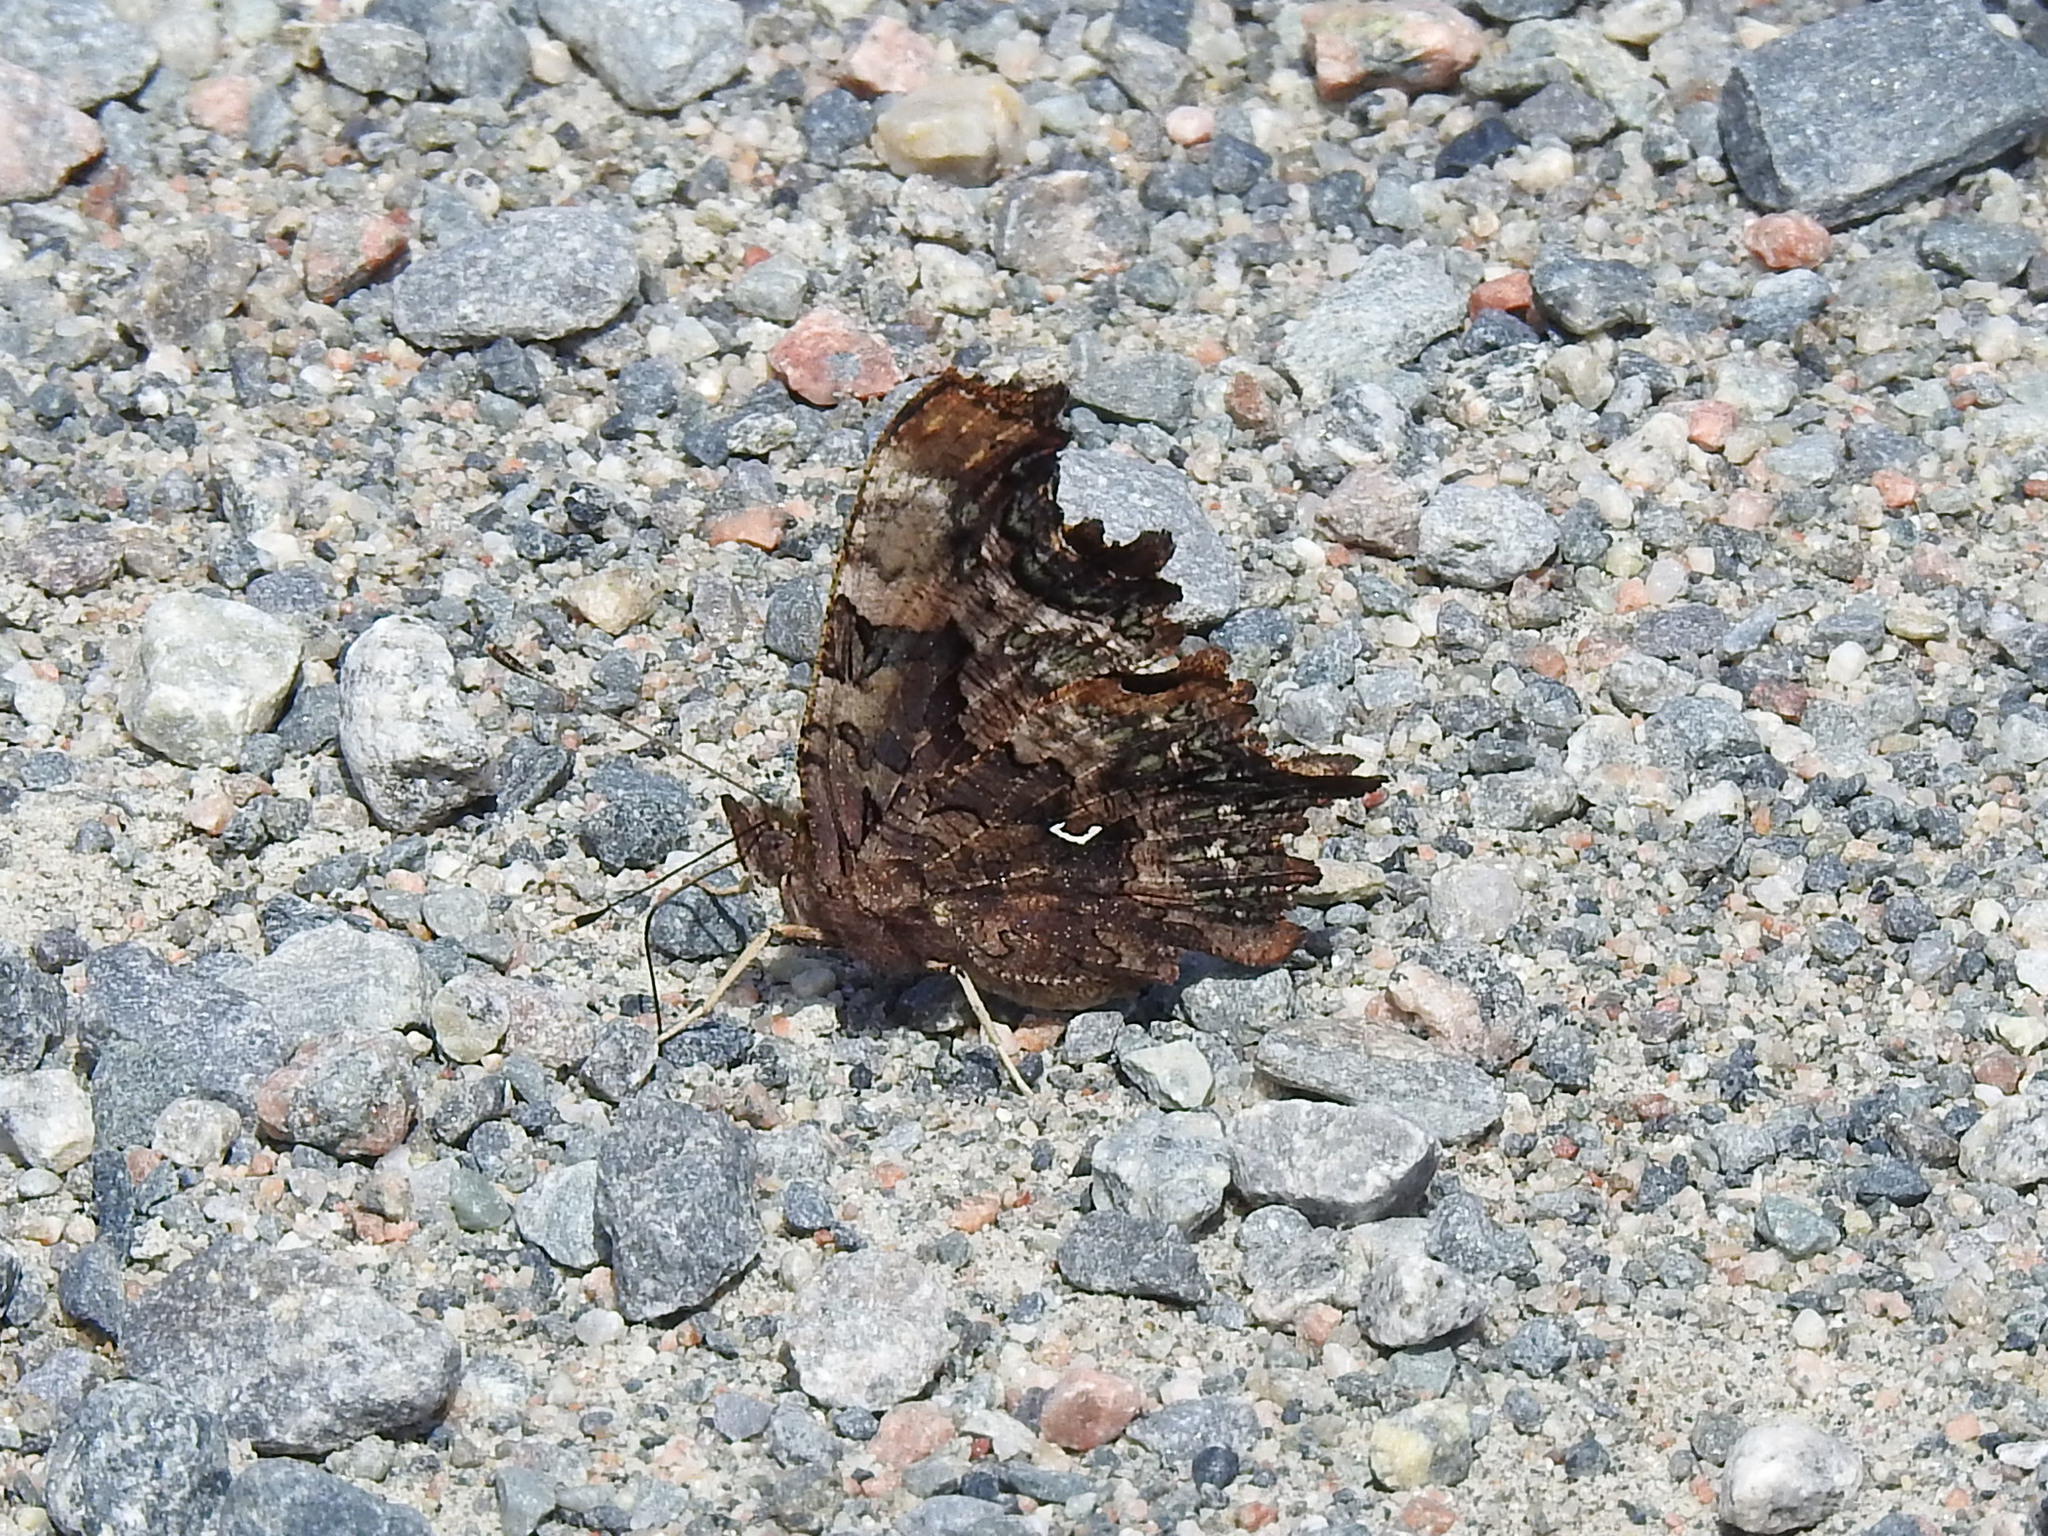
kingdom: Animalia
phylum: Arthropoda
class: Insecta
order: Lepidoptera
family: Nymphalidae
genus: Polygonia
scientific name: Polygonia faunus
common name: Green comma
